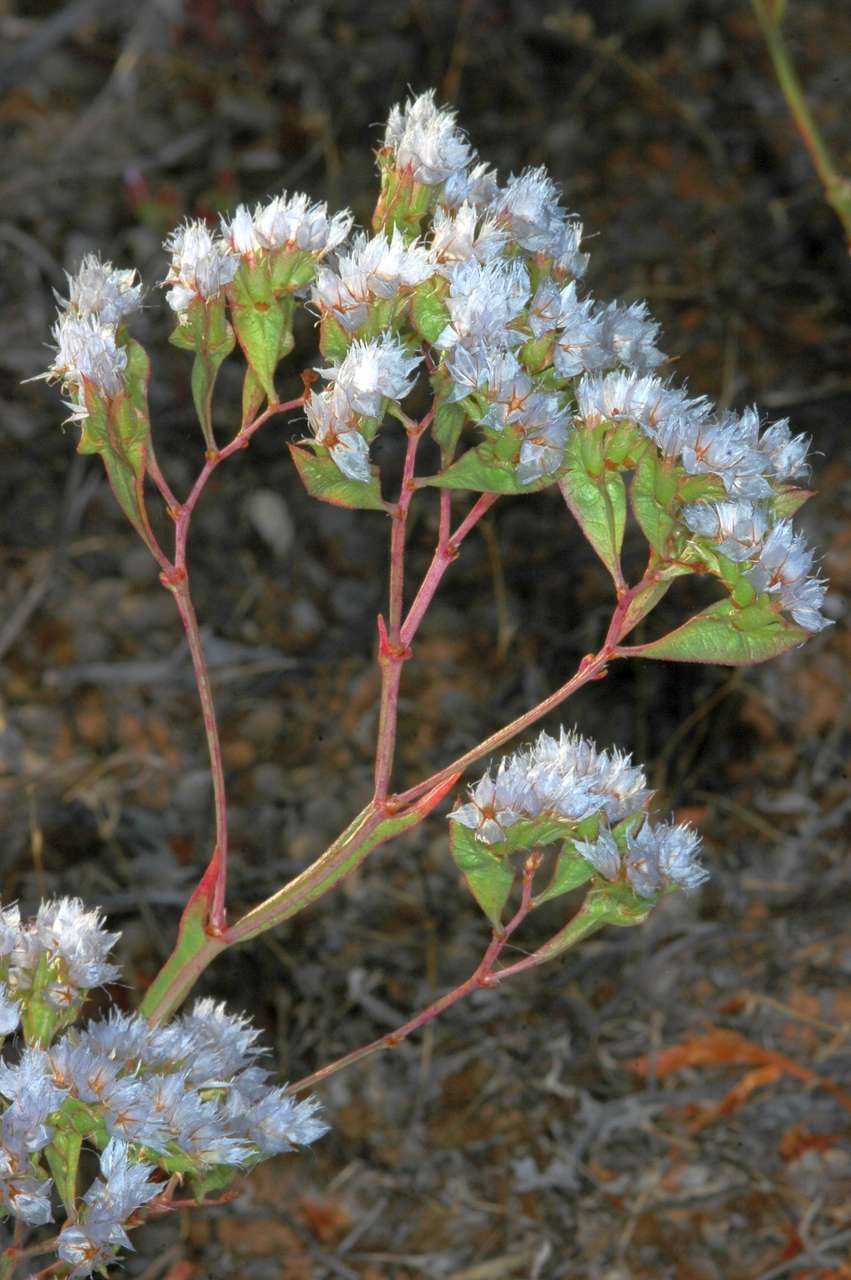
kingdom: Plantae
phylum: Tracheophyta
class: Magnoliopsida
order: Caryophyllales
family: Plumbaginaceae
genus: Limonium
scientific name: Limonium lobatum
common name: Winged sea-lavender
